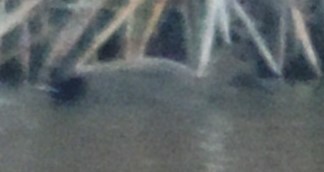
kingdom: Animalia
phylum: Chordata
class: Aves
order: Anseriformes
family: Anatidae
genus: Mareca
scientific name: Mareca strepera
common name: Gadwall
